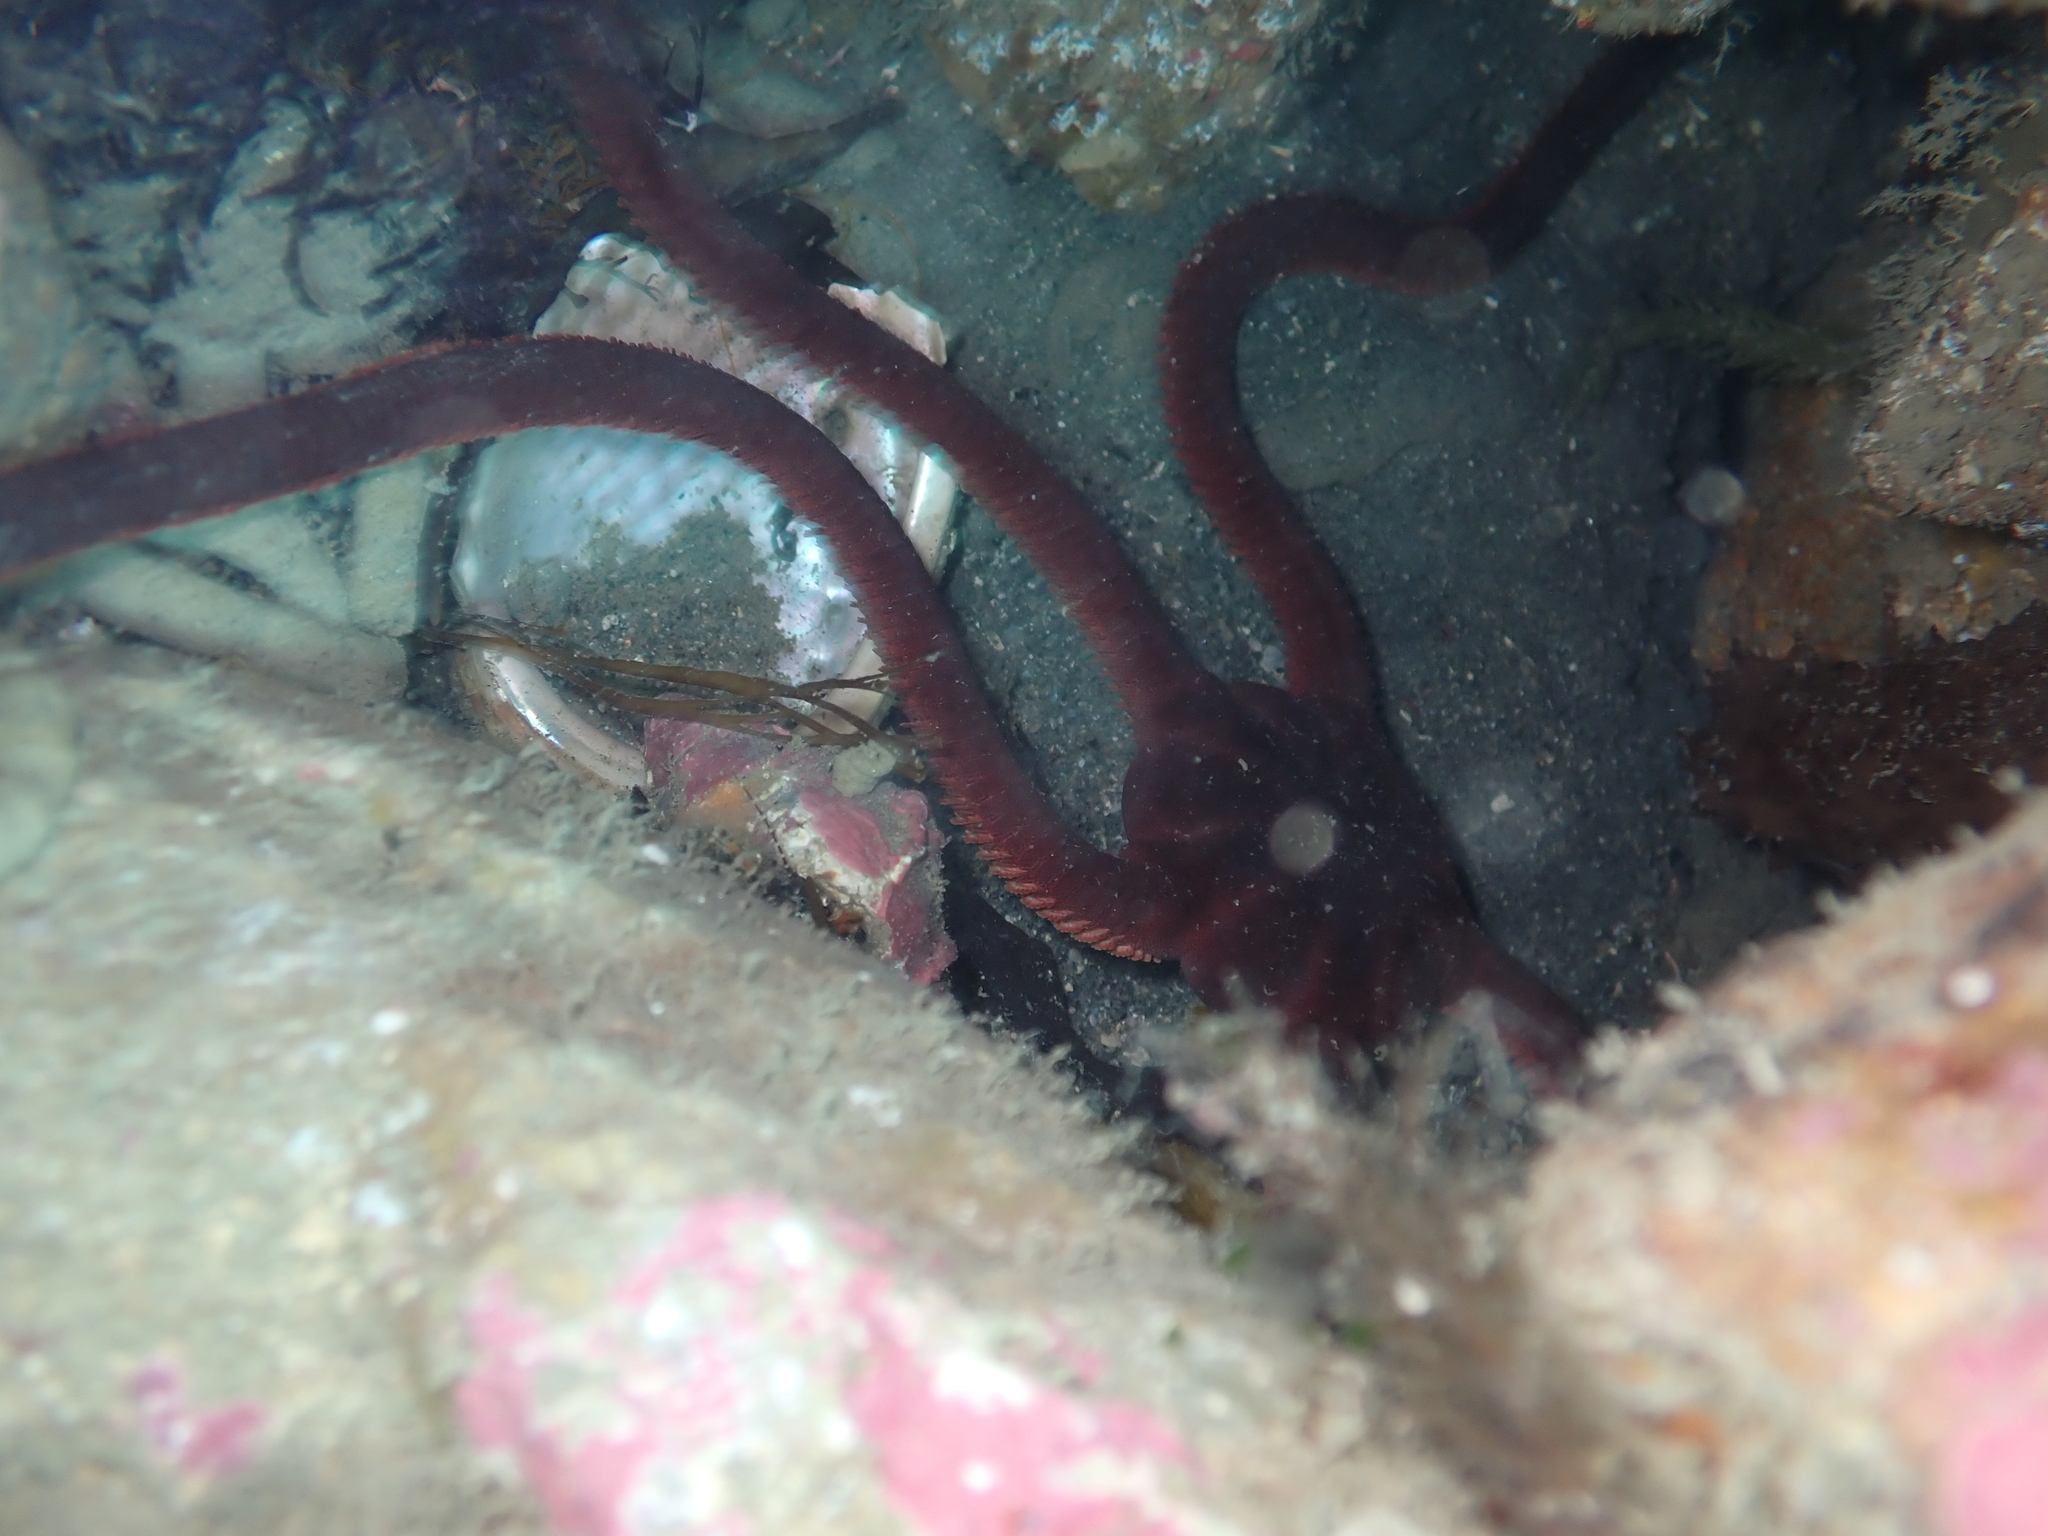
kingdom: Animalia
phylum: Echinodermata
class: Ophiuroidea
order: Ophiacanthida
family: Ophiodermatidae
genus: Ophiopsammus
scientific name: Ophiopsammus maculata
